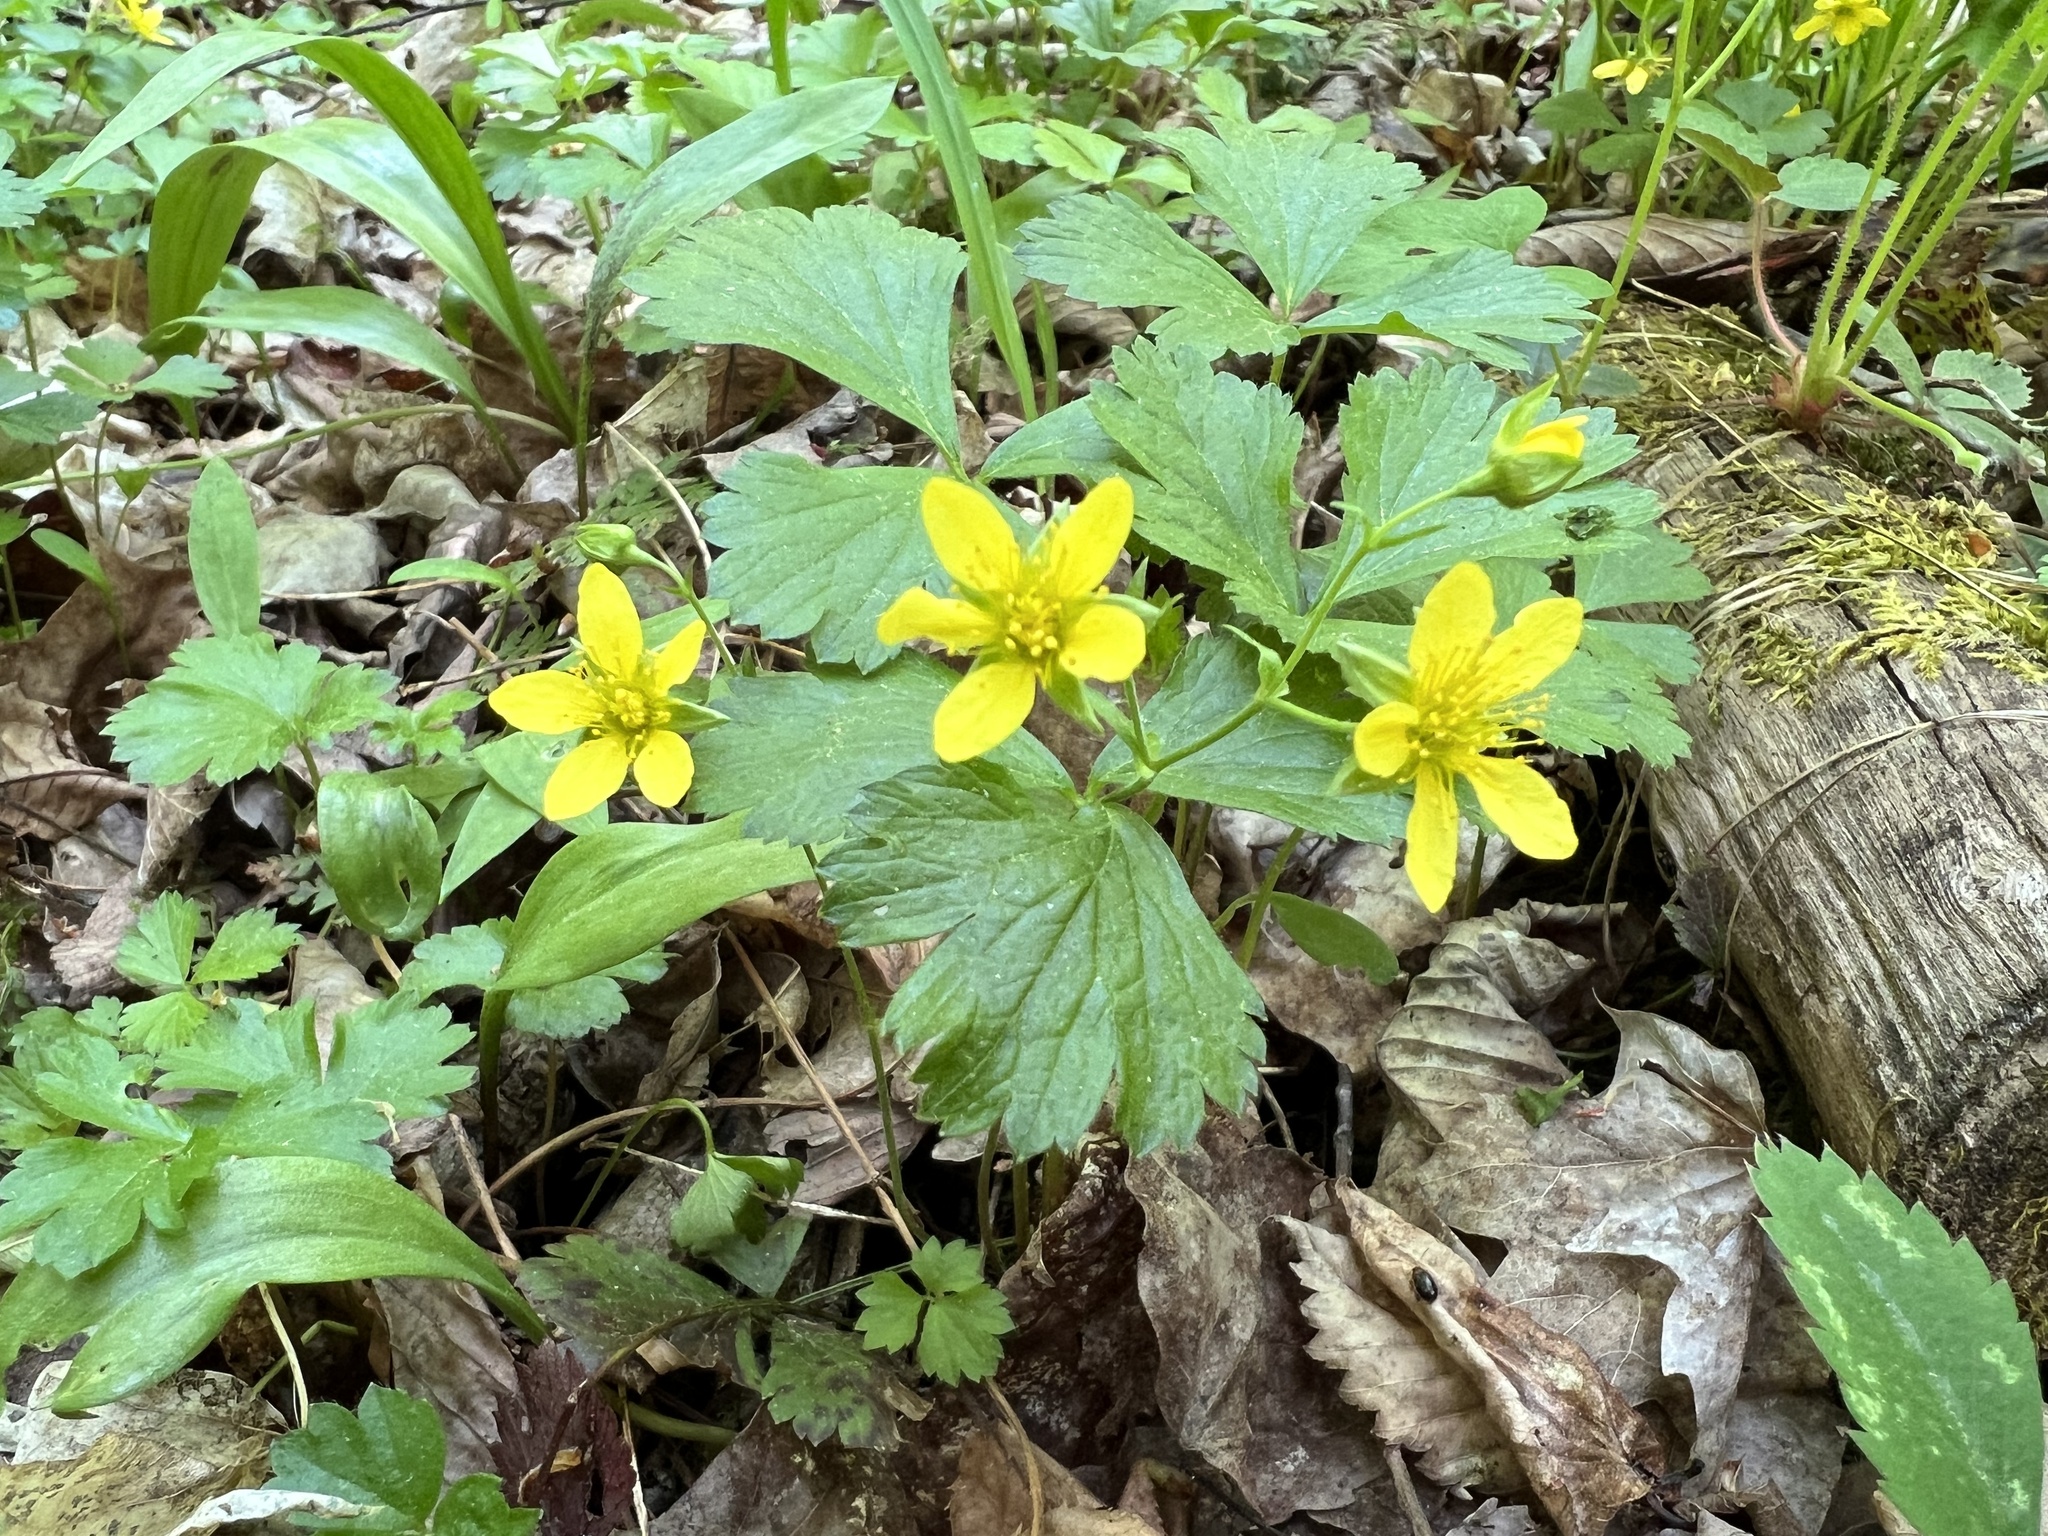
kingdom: Plantae
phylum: Tracheophyta
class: Magnoliopsida
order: Rosales
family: Rosaceae
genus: Geum
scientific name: Geum fragarioides
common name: Appalachian barren strawberry
